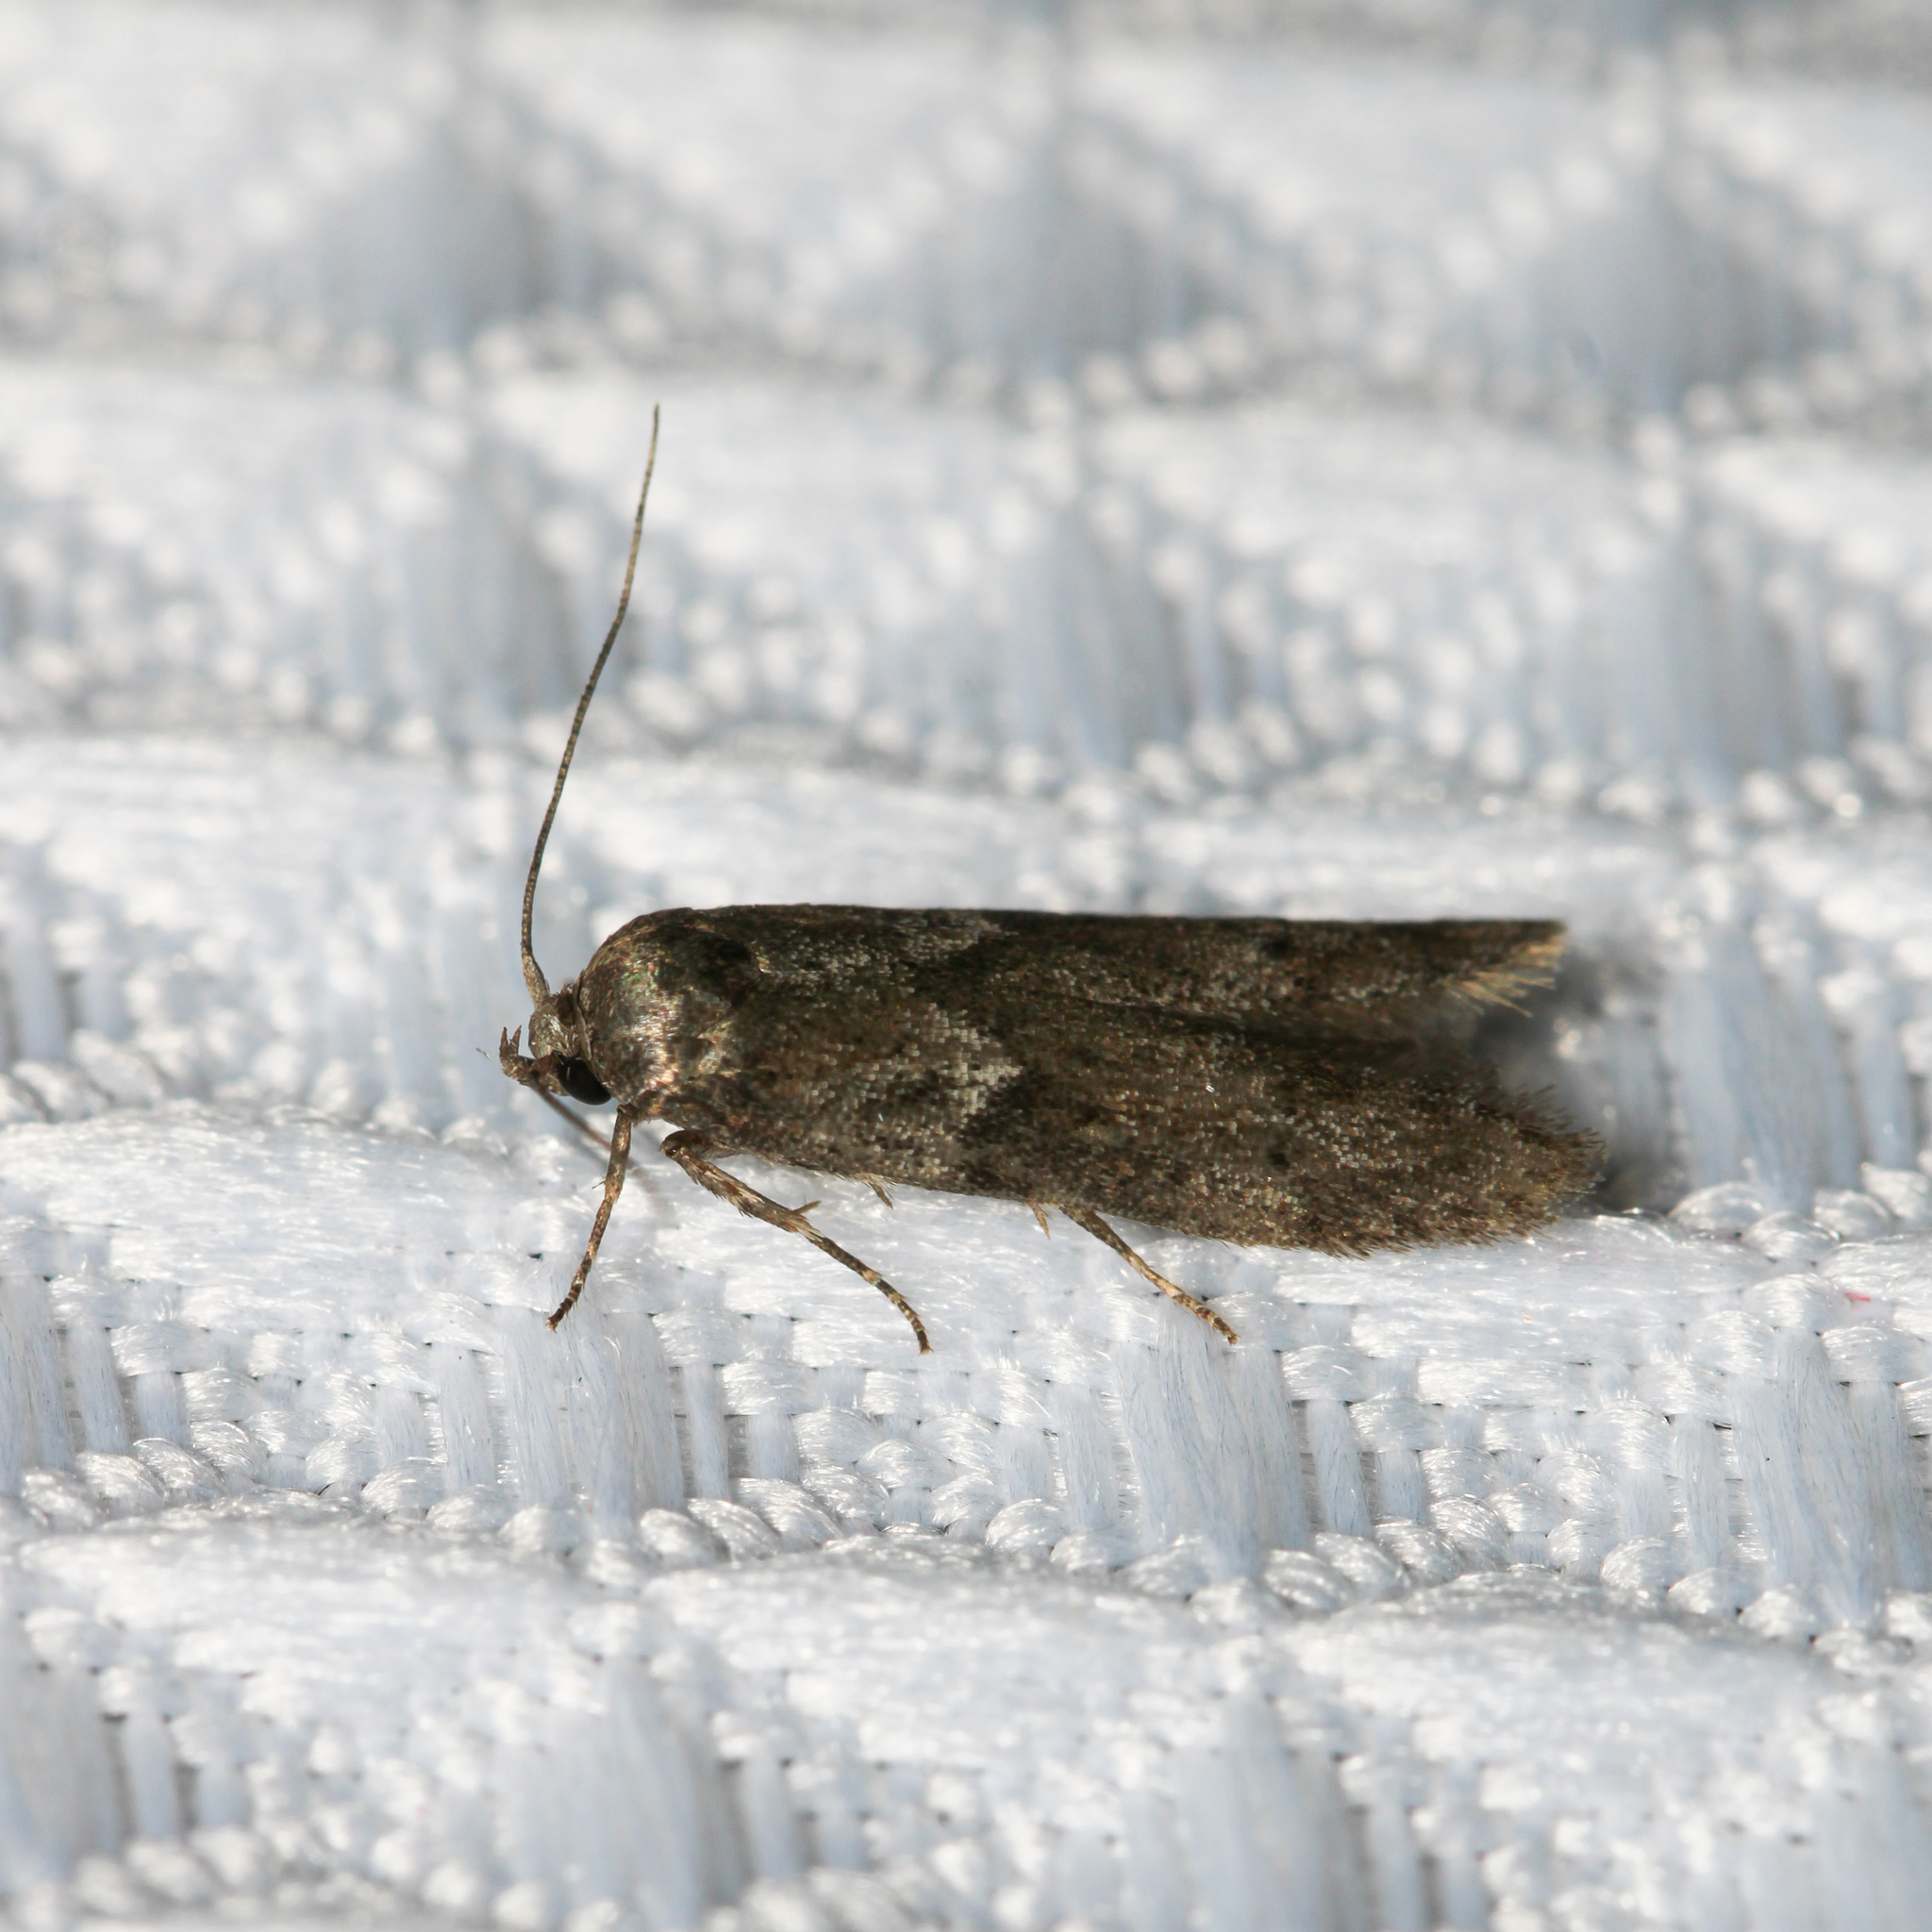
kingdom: Animalia
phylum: Arthropoda
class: Insecta
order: Lepidoptera
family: Blastobasidae
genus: Blastobasis
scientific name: Blastobasis glandulella
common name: Acorn moth
